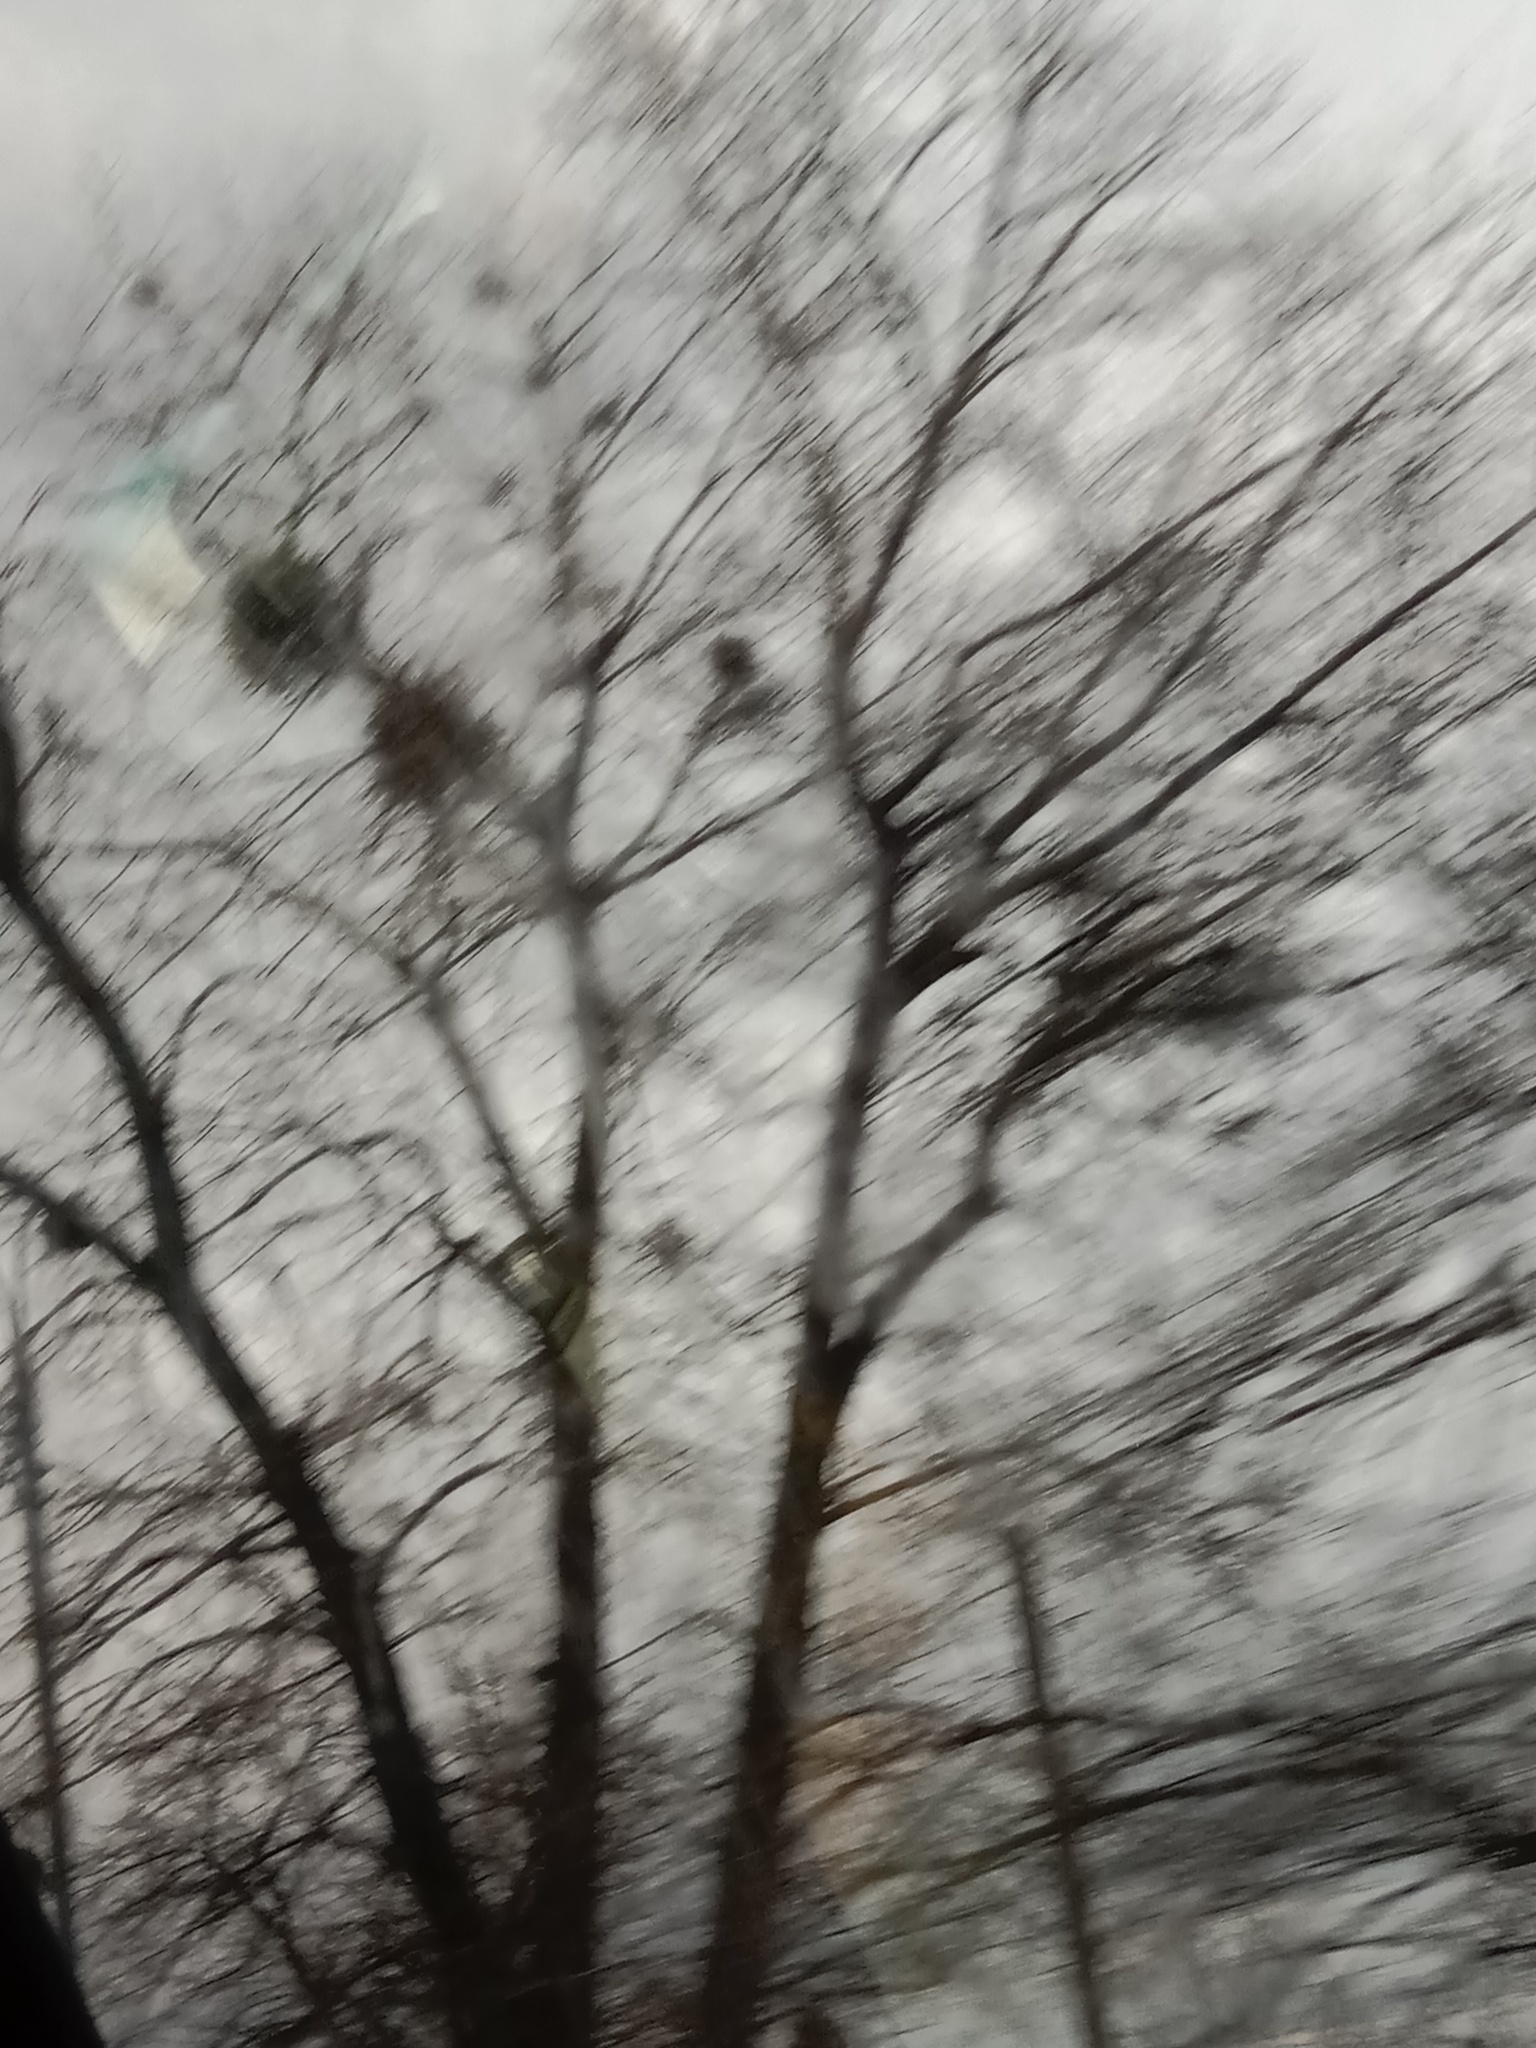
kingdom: Plantae
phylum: Tracheophyta
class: Magnoliopsida
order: Santalales
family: Viscaceae
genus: Viscum
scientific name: Viscum album
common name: Mistletoe
